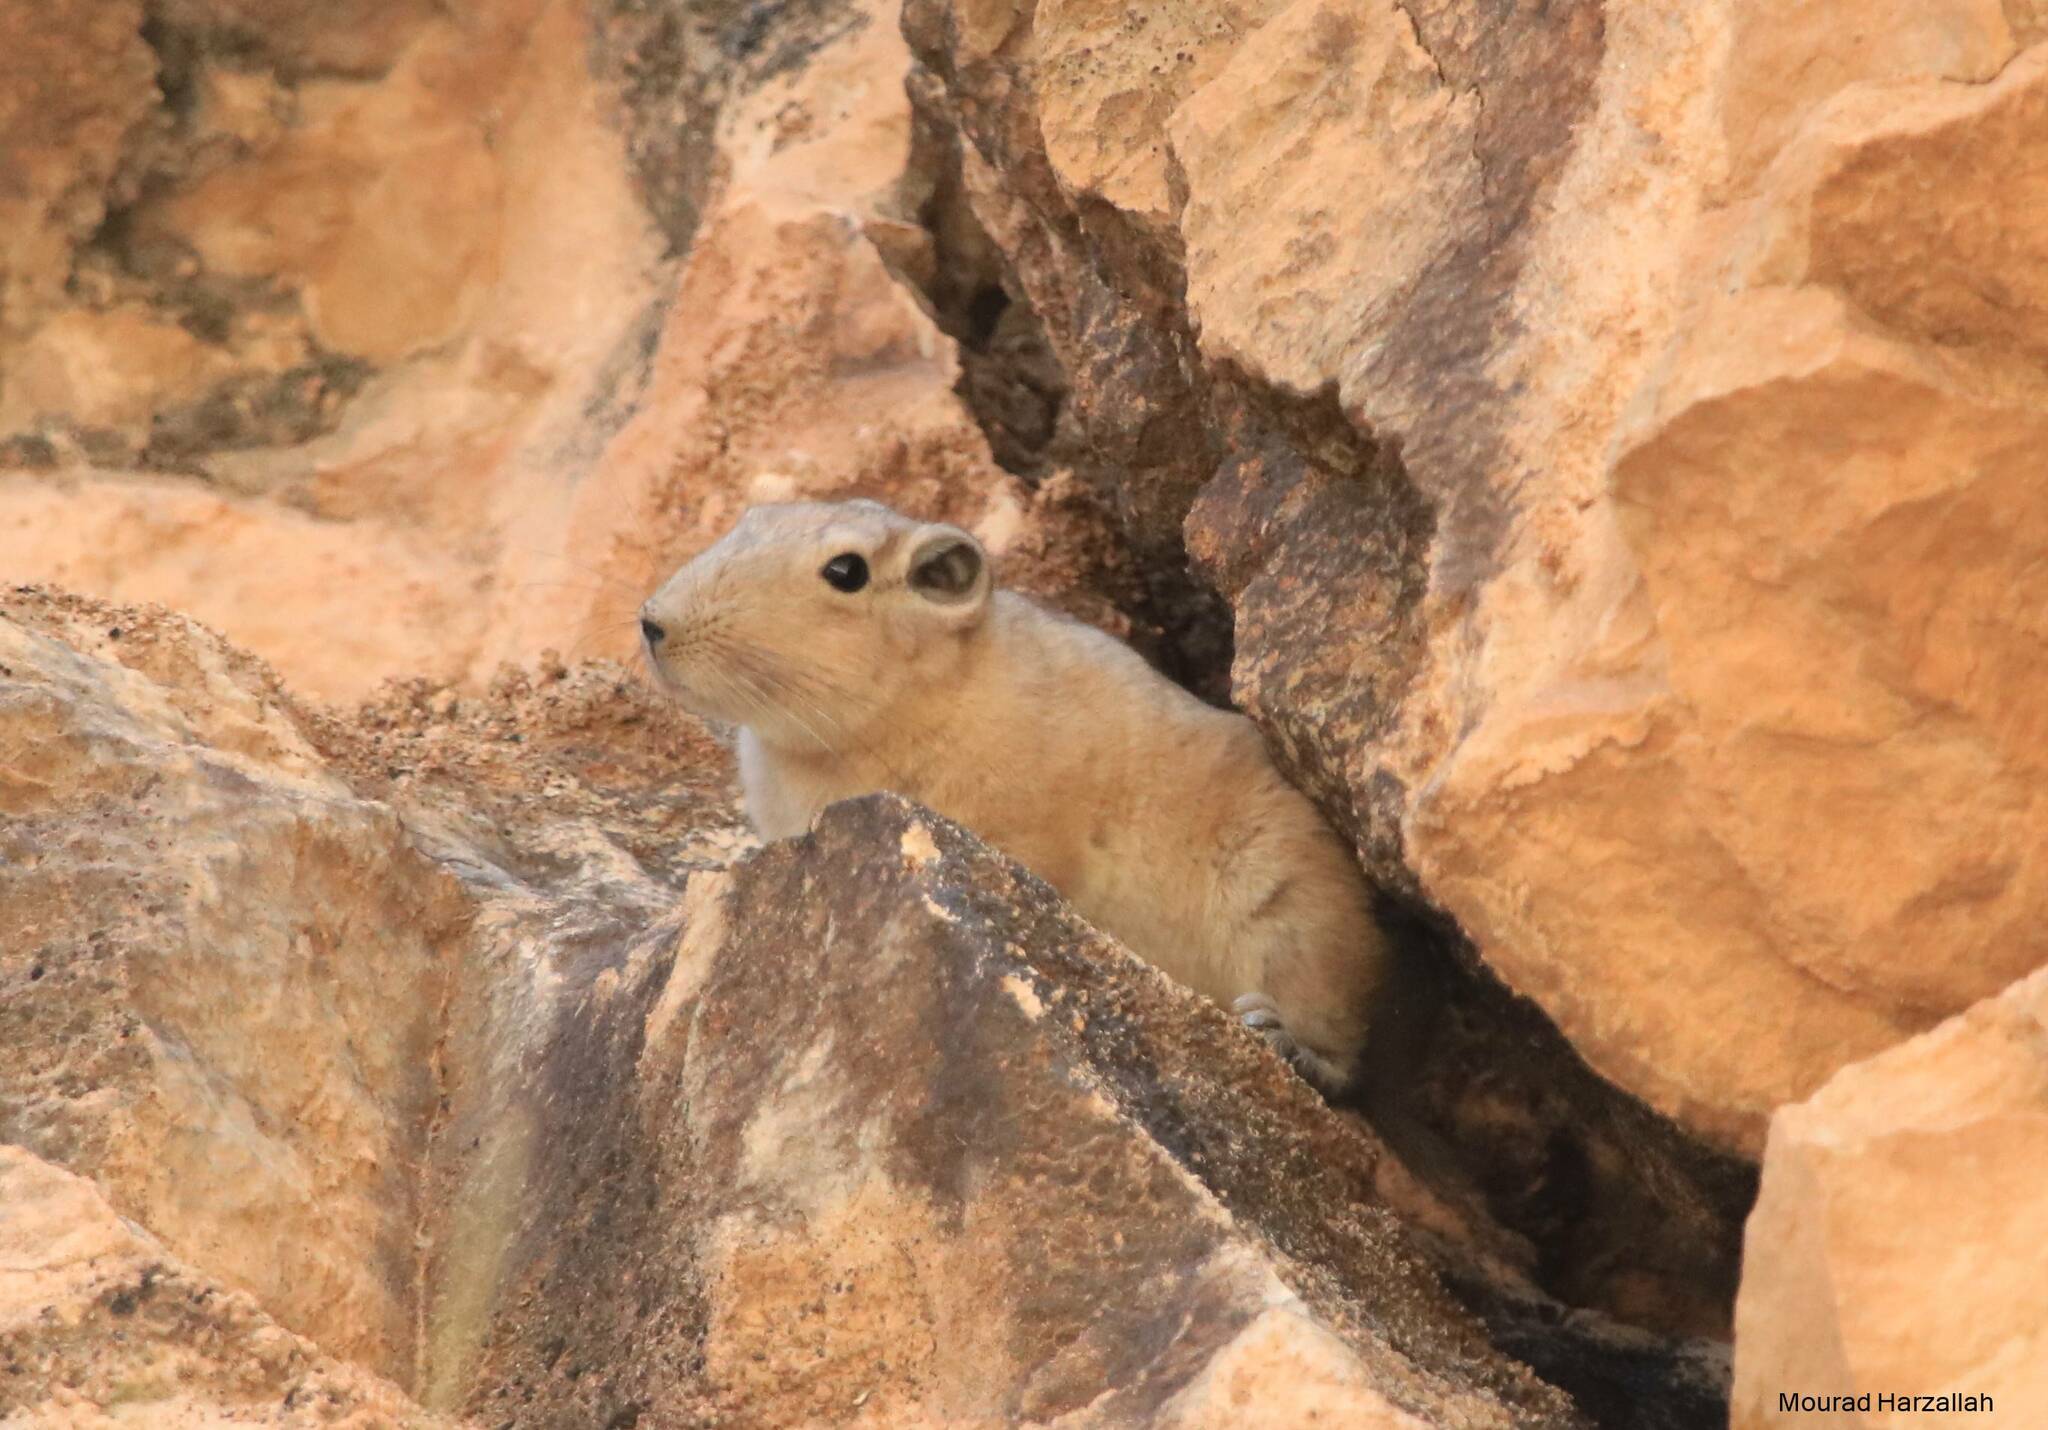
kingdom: Animalia
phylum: Chordata
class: Mammalia
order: Rodentia
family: Ctenodactylidae
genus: Ctenodactylus
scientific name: Ctenodactylus gundi
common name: Common gundi
